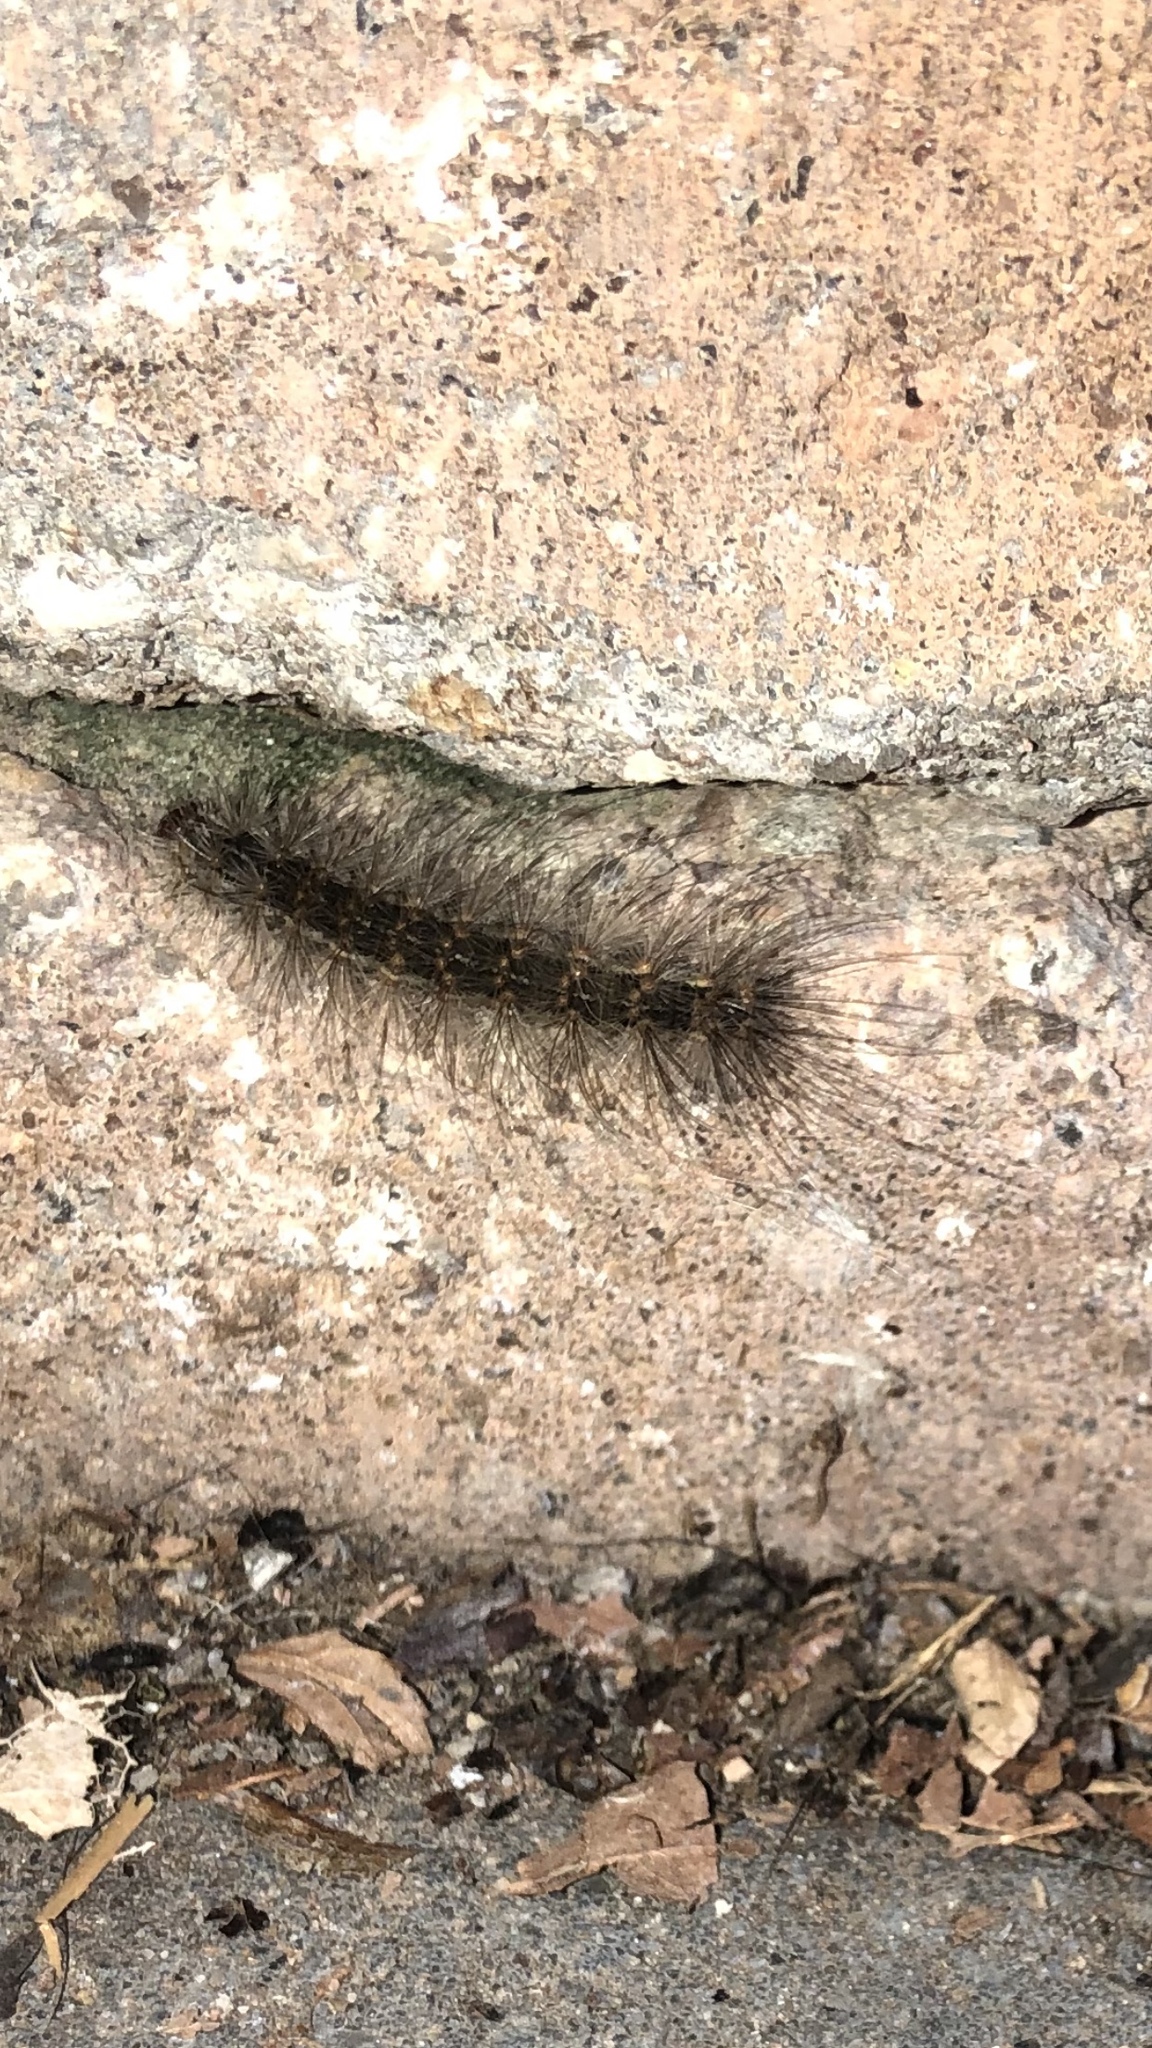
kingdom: Animalia
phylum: Arthropoda
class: Insecta
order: Lepidoptera
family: Erebidae
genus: Hyphantria
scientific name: Hyphantria cunea
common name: American white moth
